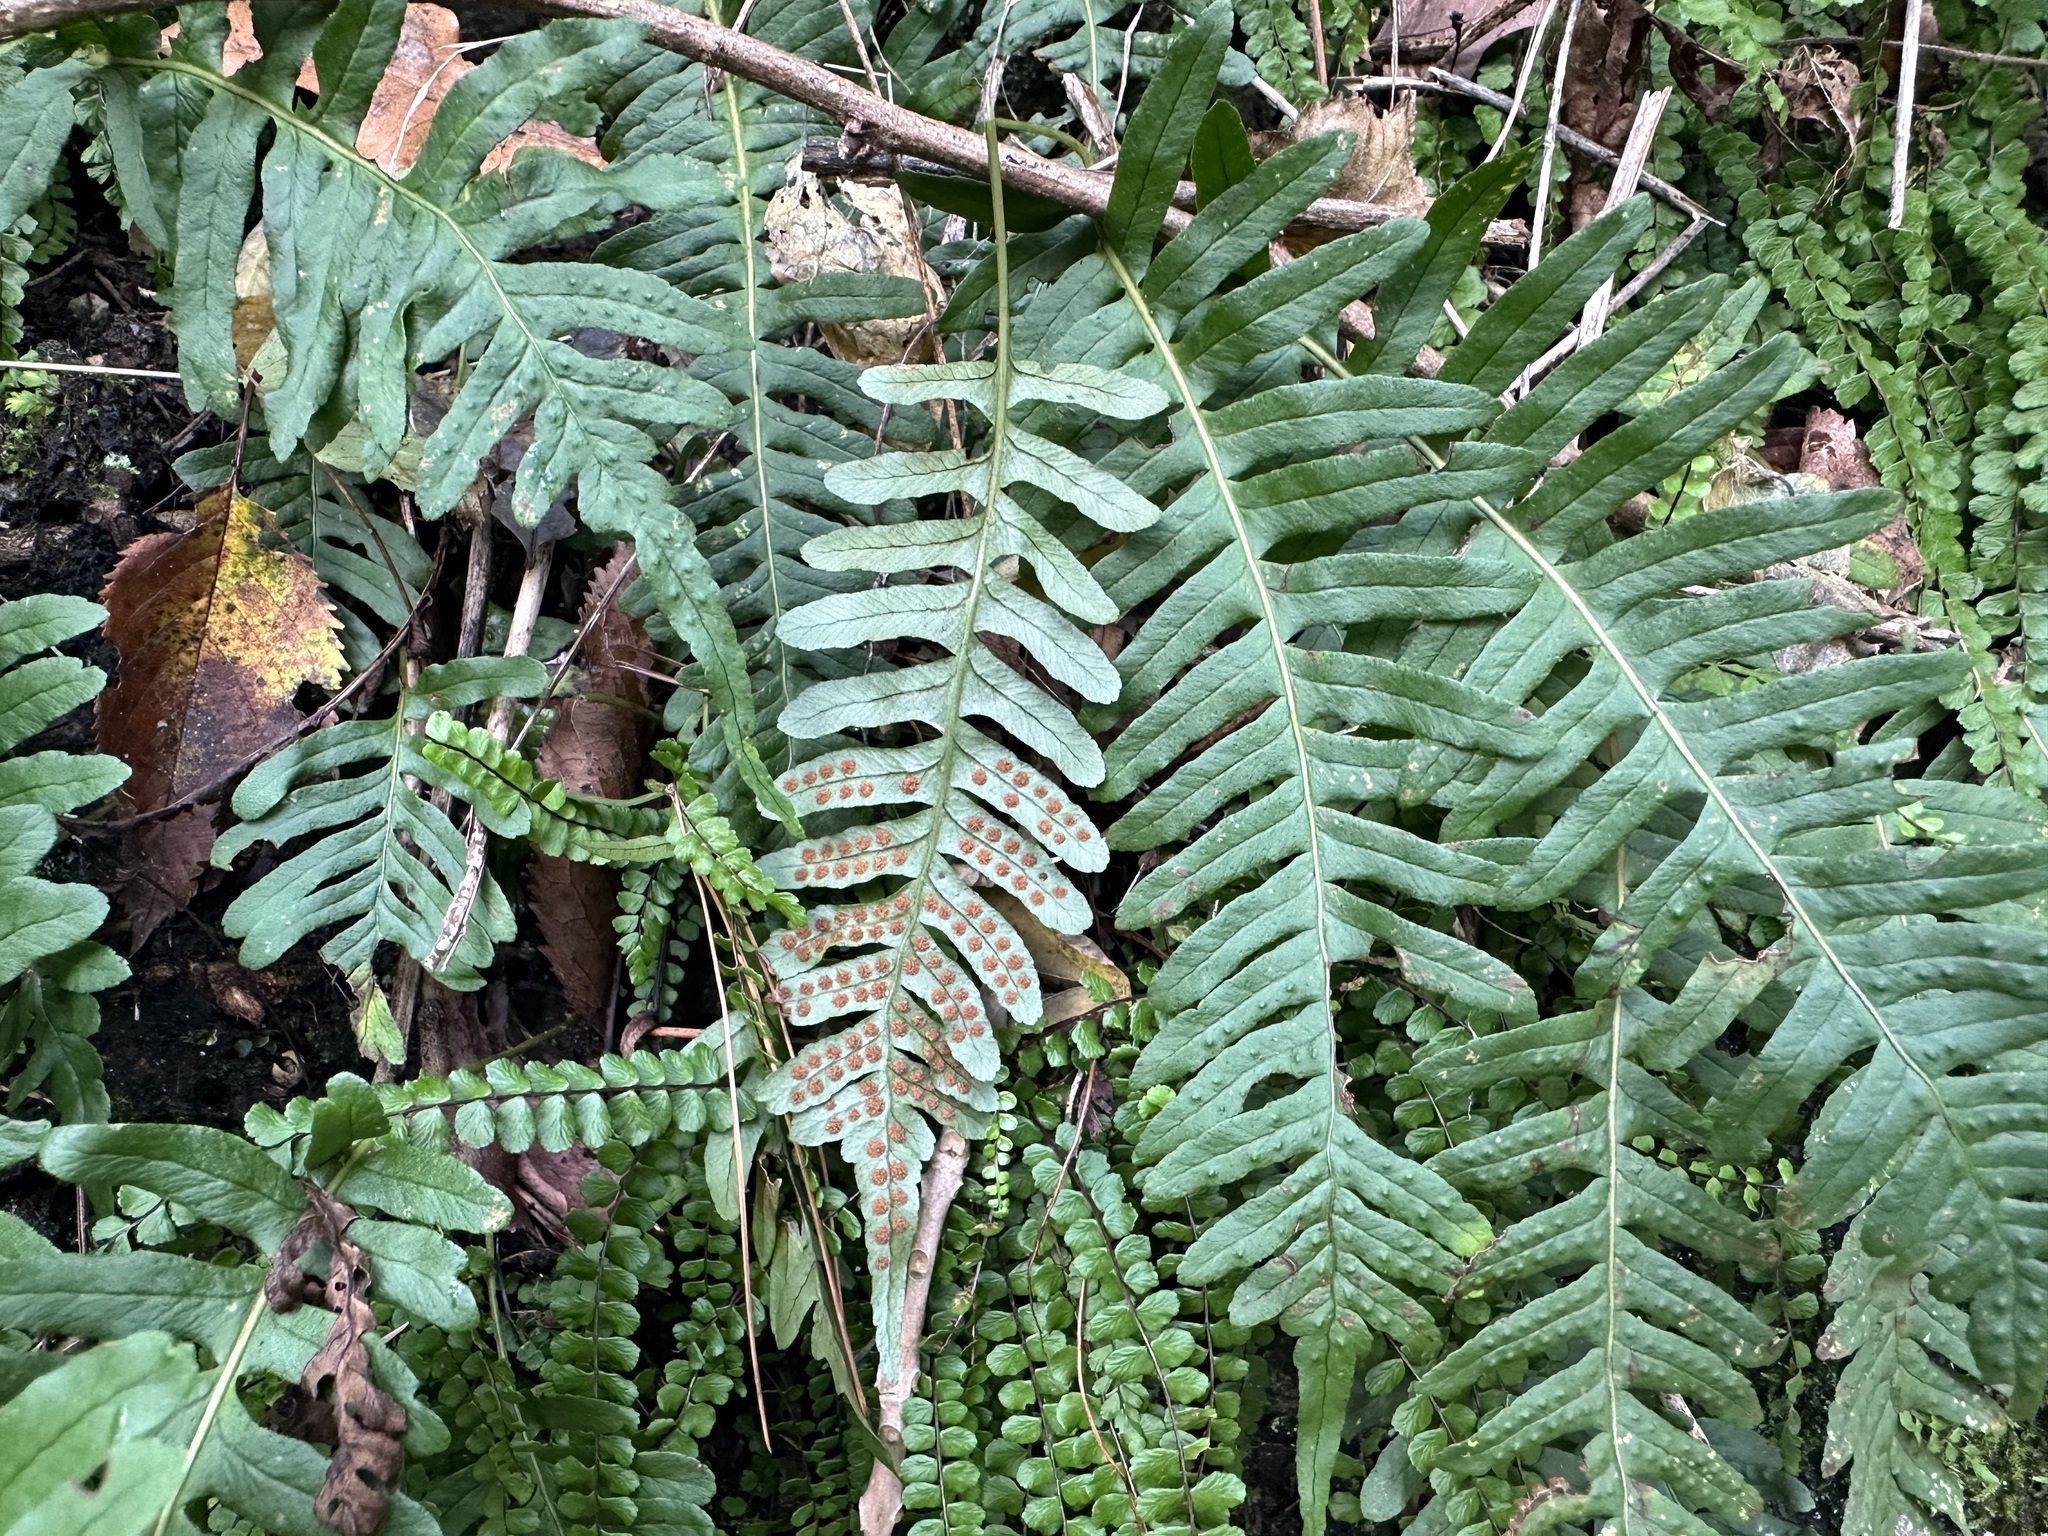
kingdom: Plantae
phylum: Tracheophyta
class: Polypodiopsida
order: Polypodiales
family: Polypodiaceae
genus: Polypodium
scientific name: Polypodium vulgare
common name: Common polypody
